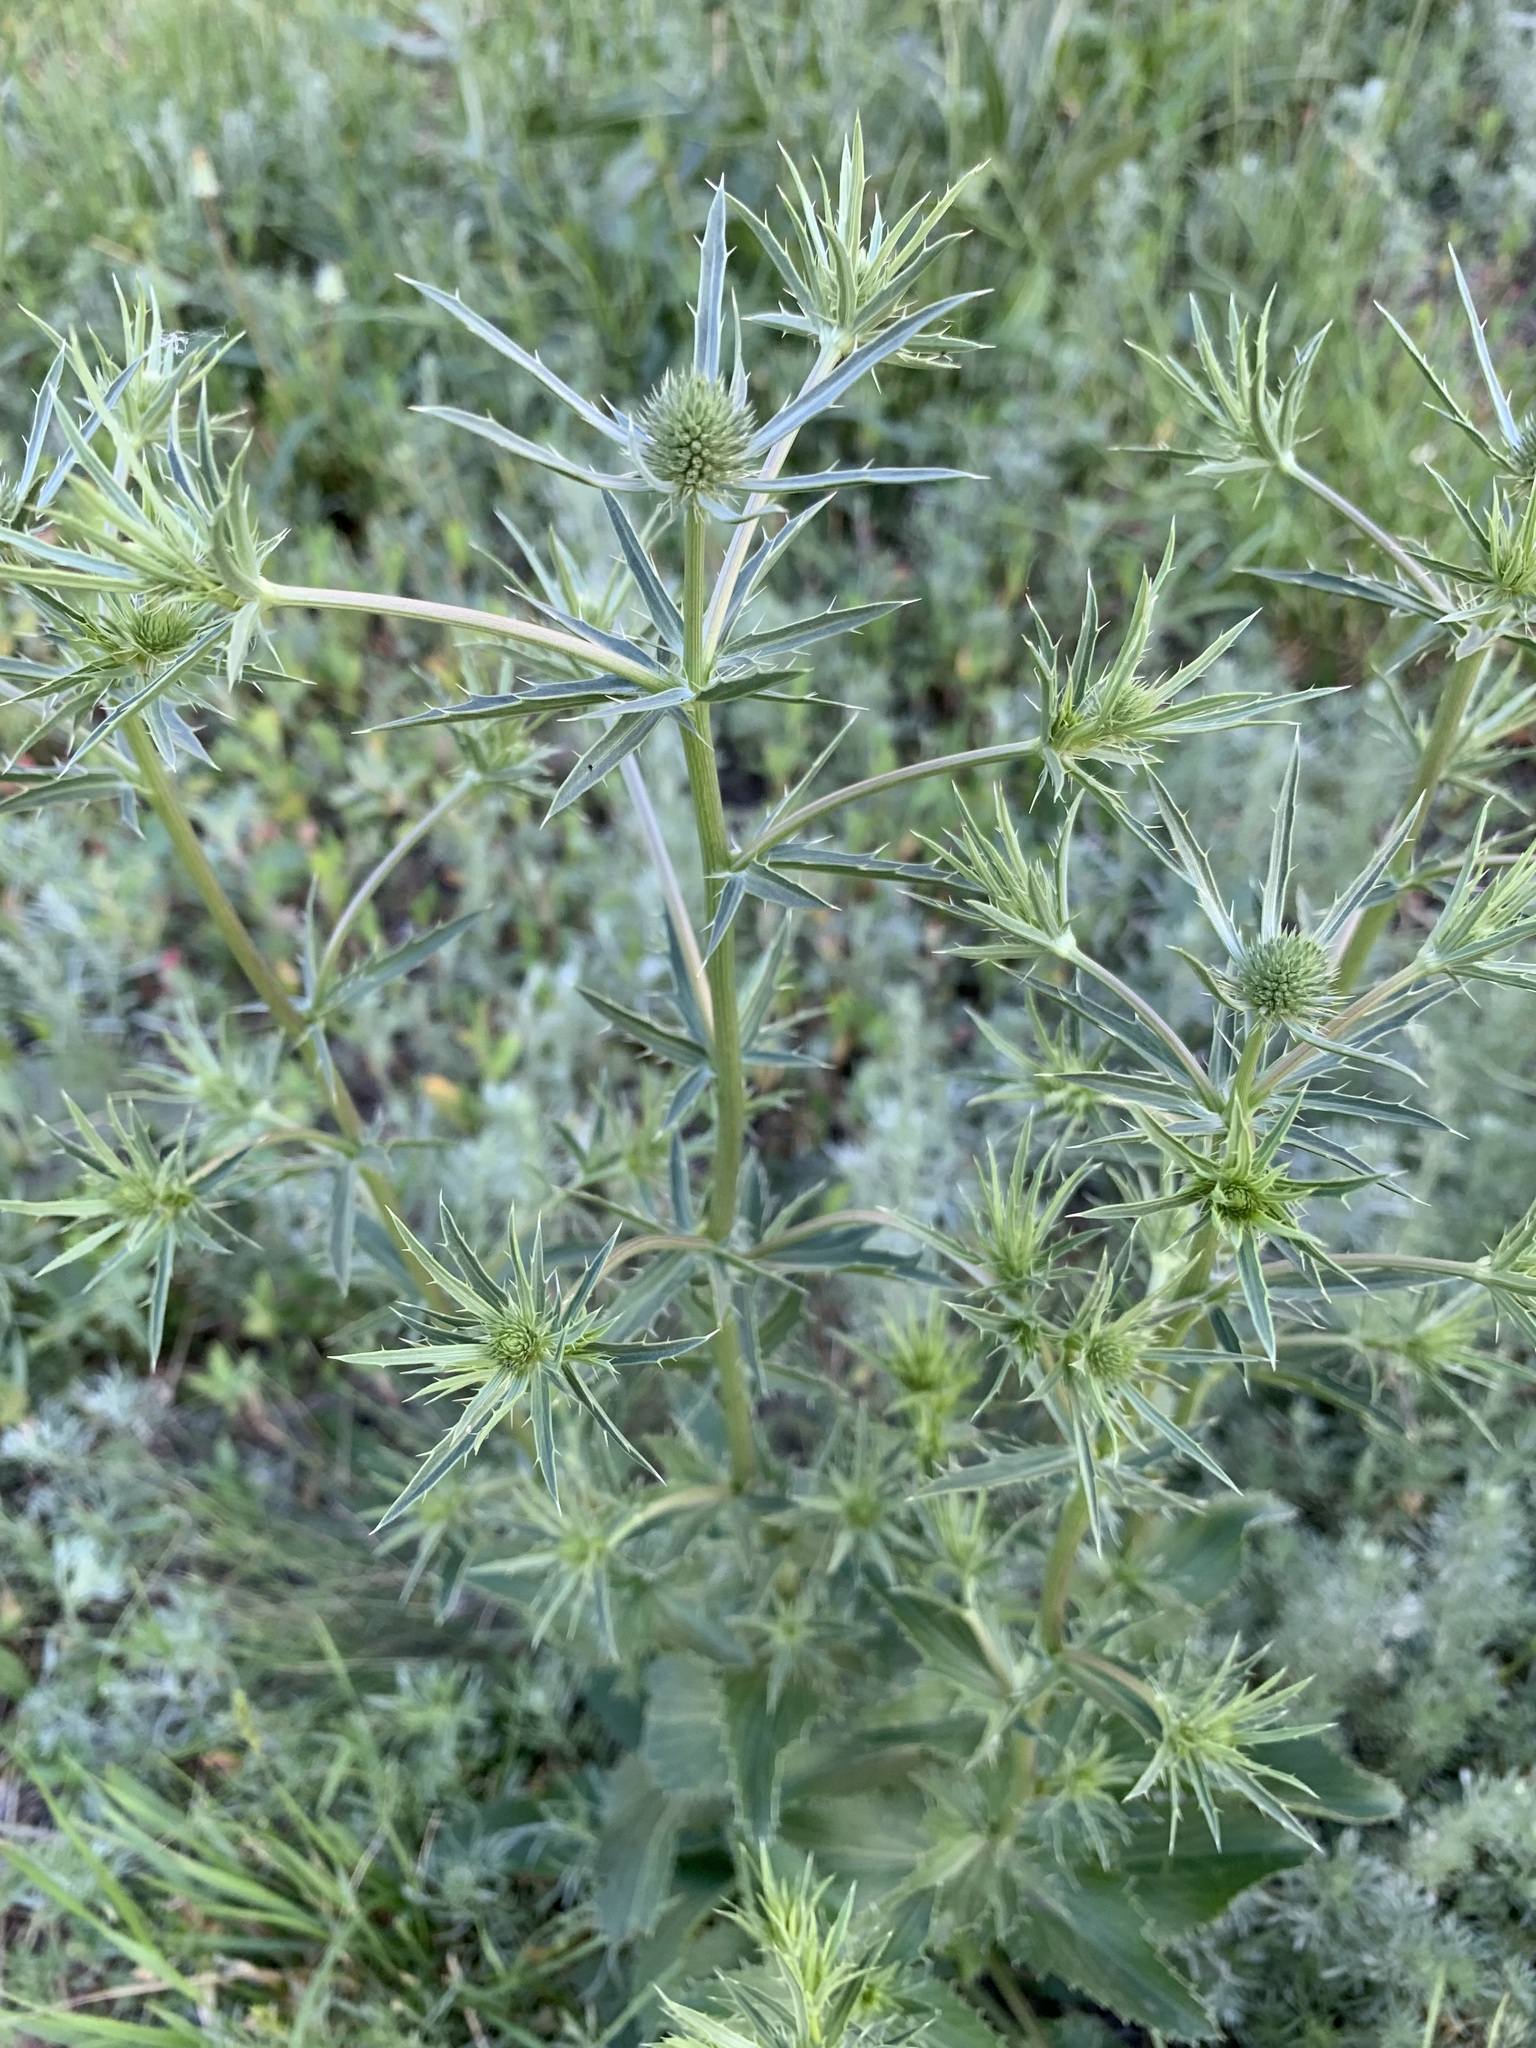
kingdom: Plantae
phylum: Tracheophyta
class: Magnoliopsida
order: Apiales
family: Apiaceae
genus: Eryngium
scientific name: Eryngium planum
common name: Blue eryngo
